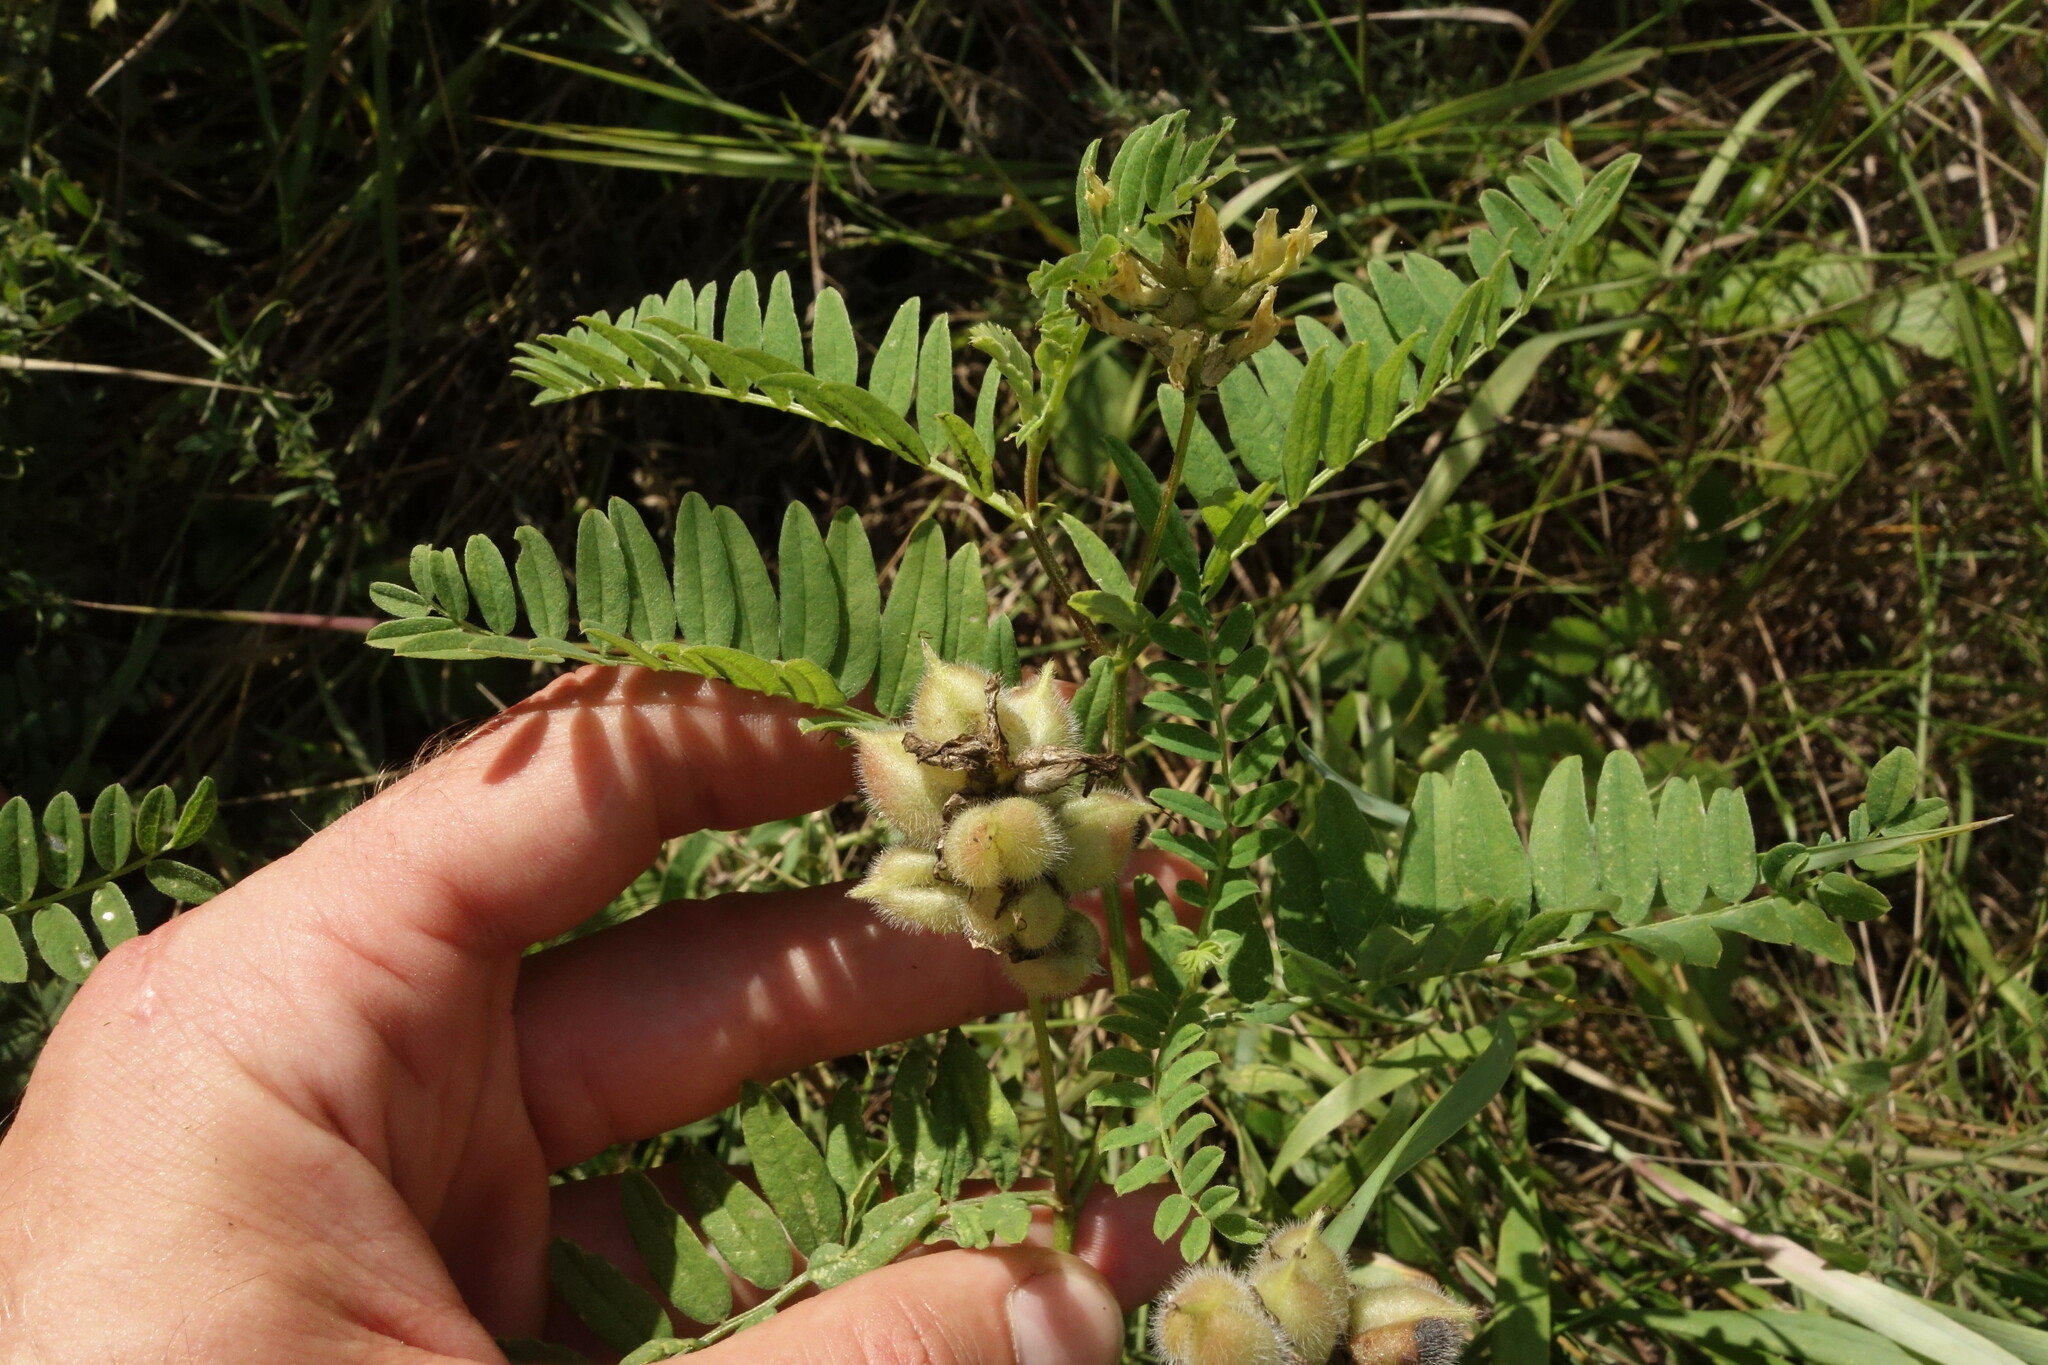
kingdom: Plantae
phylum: Tracheophyta
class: Magnoliopsida
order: Fabales
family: Fabaceae
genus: Astragalus
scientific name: Astragalus cicer
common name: Chick-pea milk-vetch
